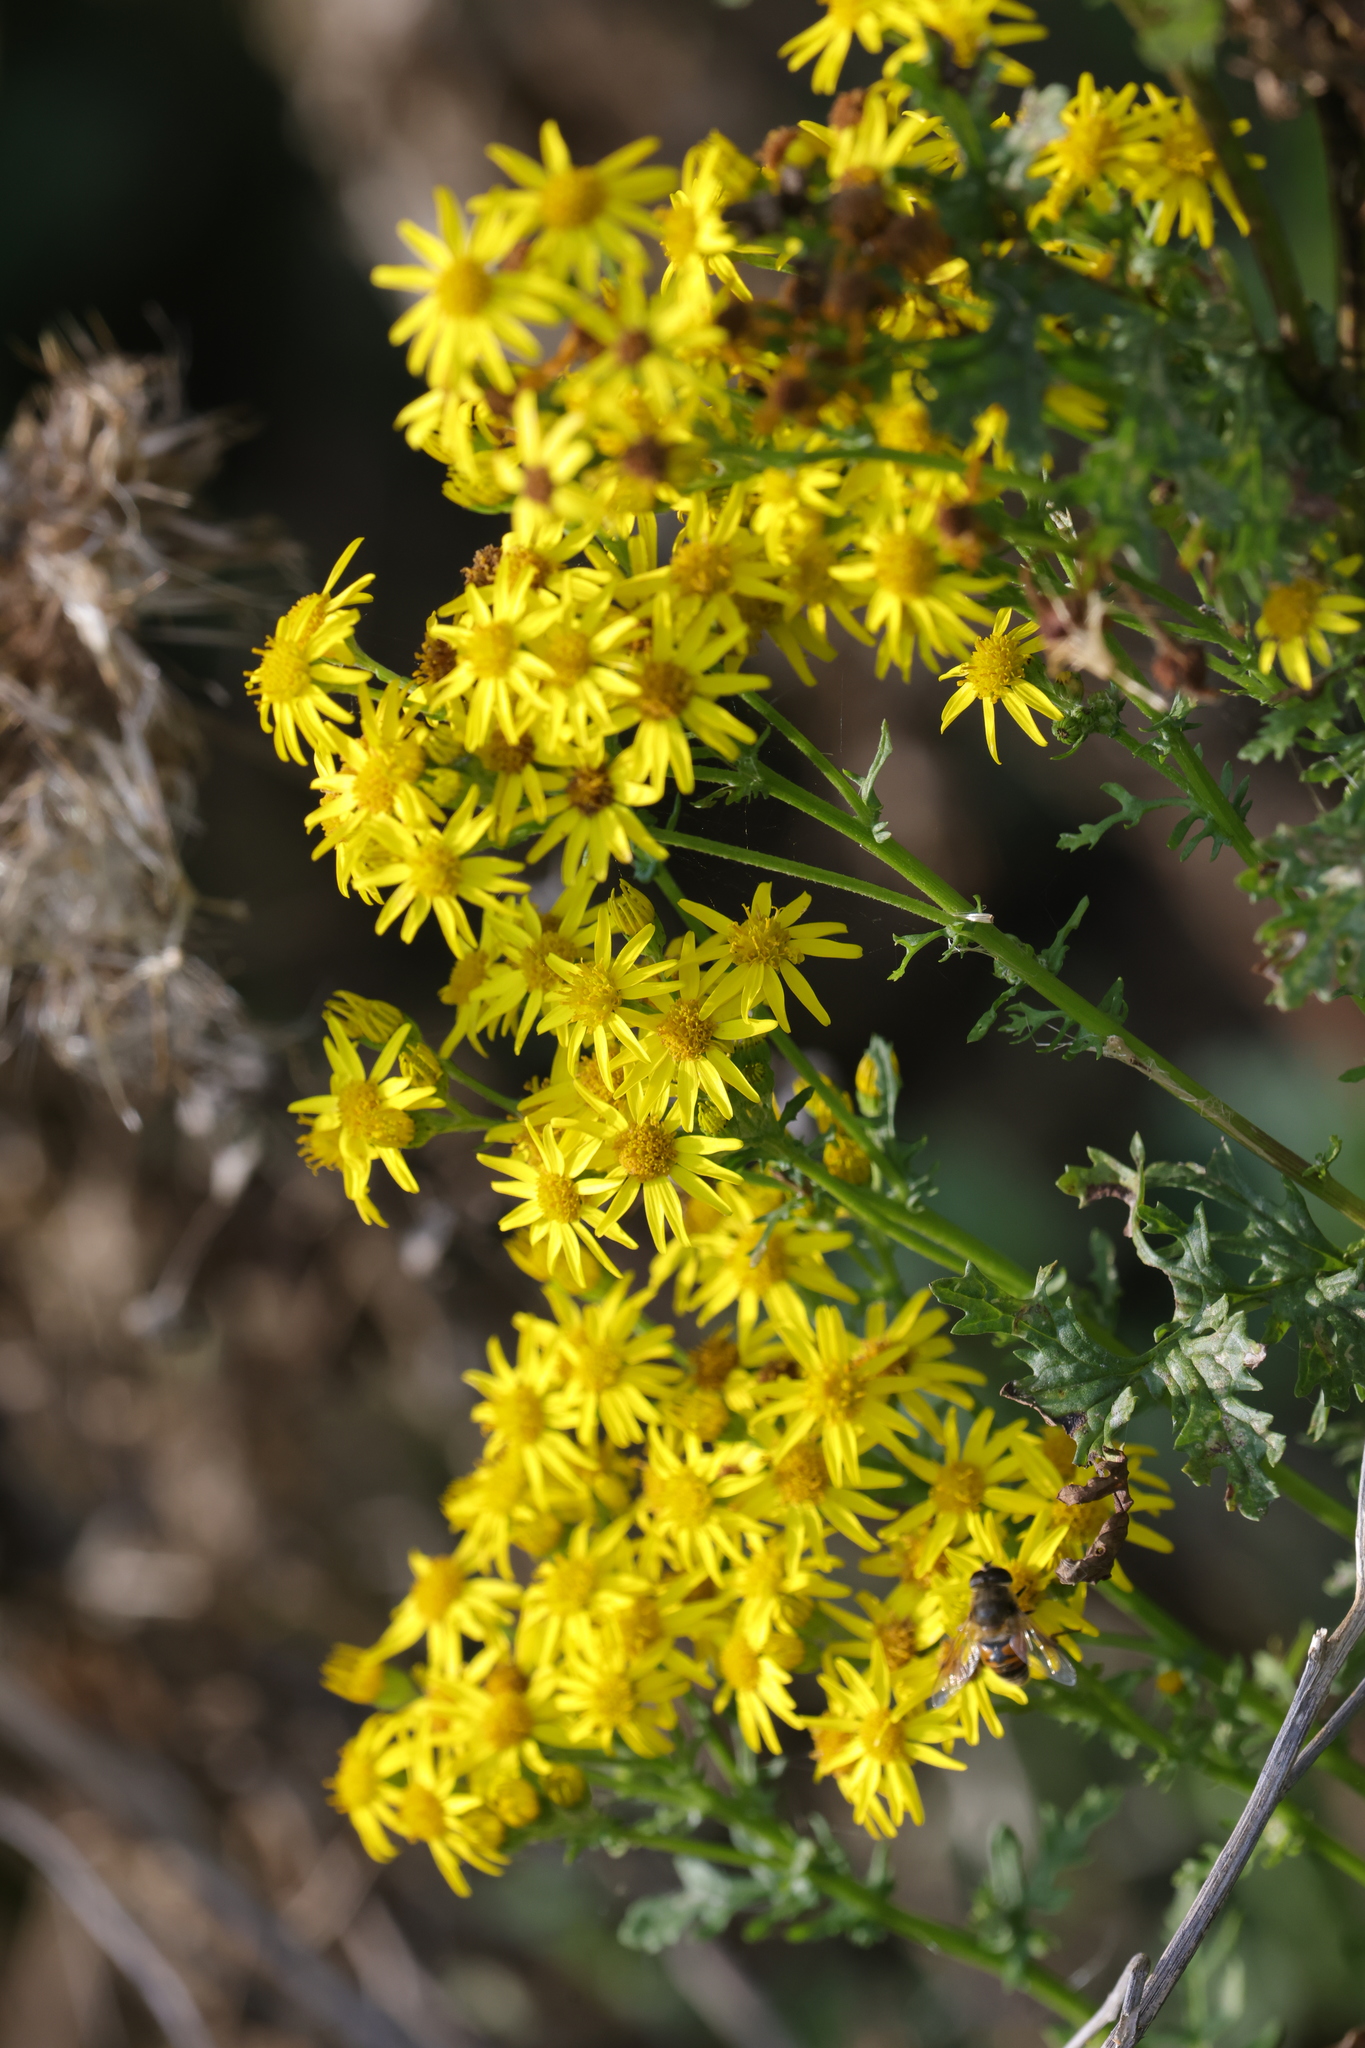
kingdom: Plantae
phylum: Tracheophyta
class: Magnoliopsida
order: Asterales
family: Asteraceae
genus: Jacobaea
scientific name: Jacobaea vulgaris
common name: Stinking willie
